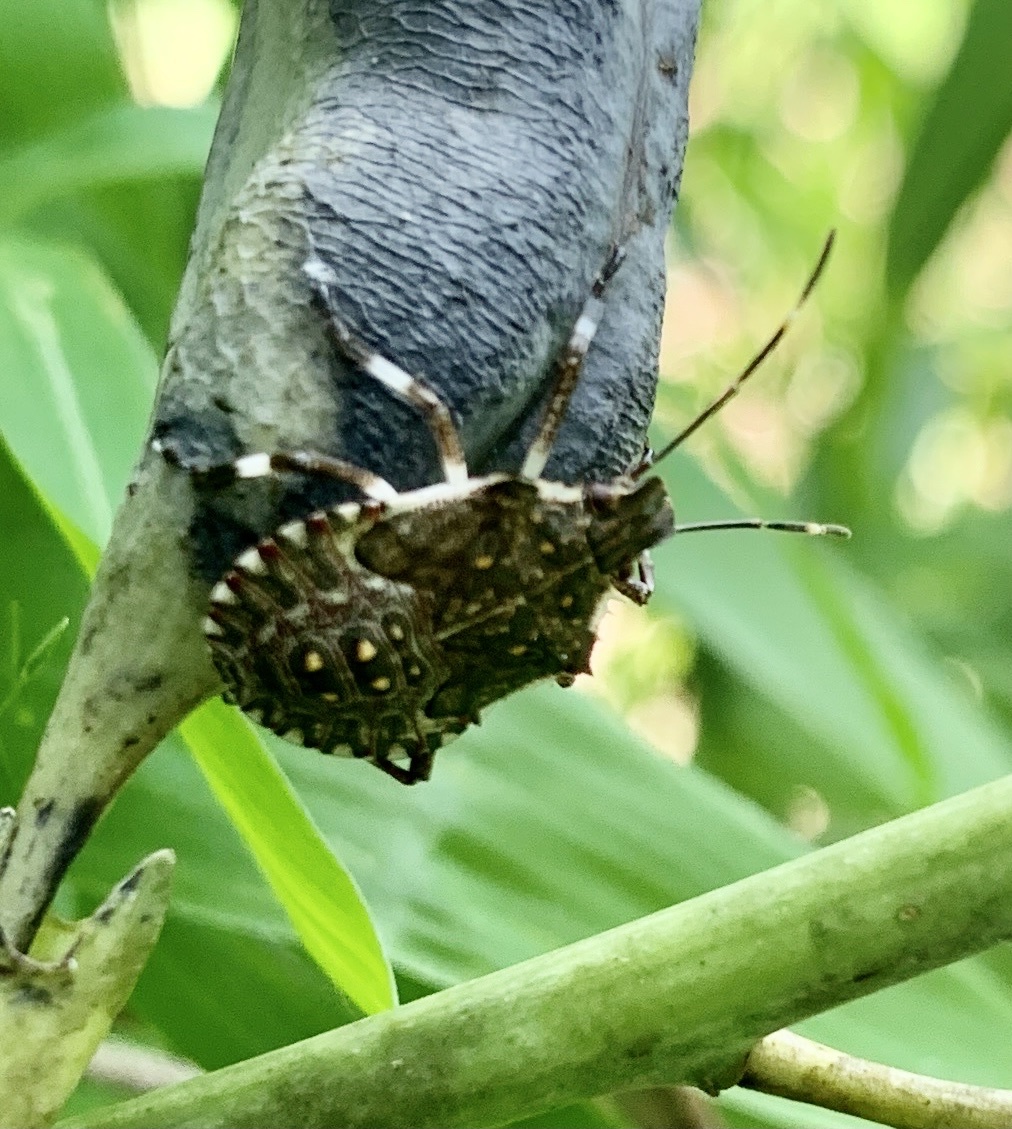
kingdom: Animalia
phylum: Arthropoda
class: Insecta
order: Hemiptera
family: Pentatomidae
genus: Halyomorpha
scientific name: Halyomorpha halys
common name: Brown marmorated stink bug
